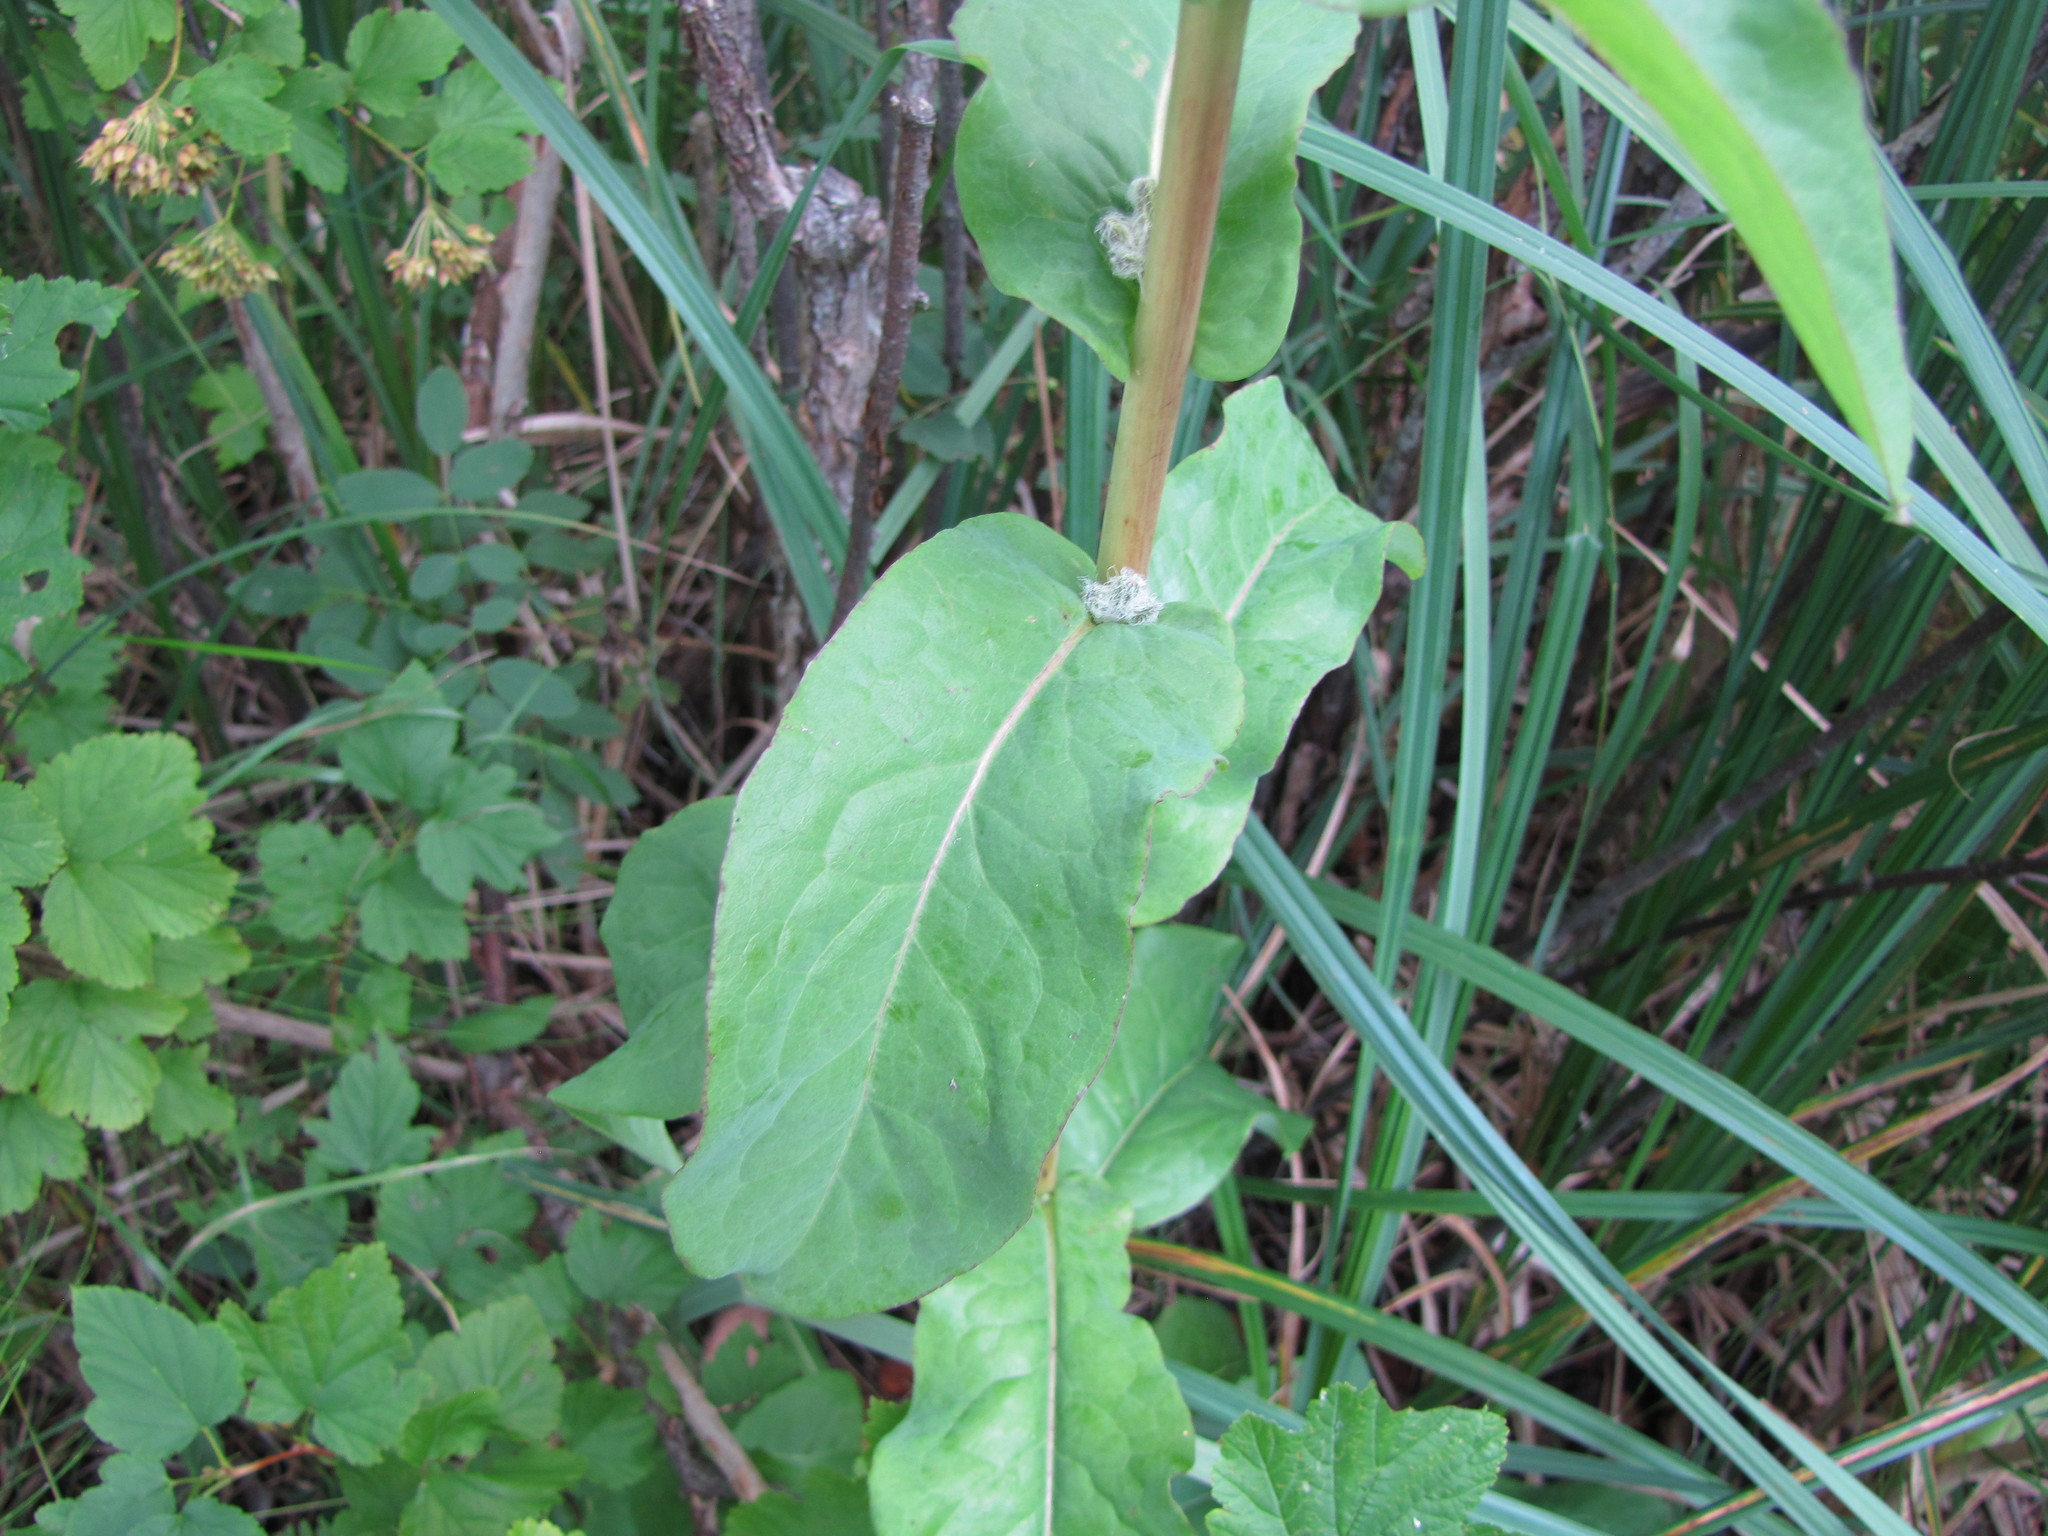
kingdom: Plantae
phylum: Tracheophyta
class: Magnoliopsida
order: Asterales
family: Asteraceae
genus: Nabalus
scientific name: Nabalus racemosus
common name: Glaucous white lettuce
